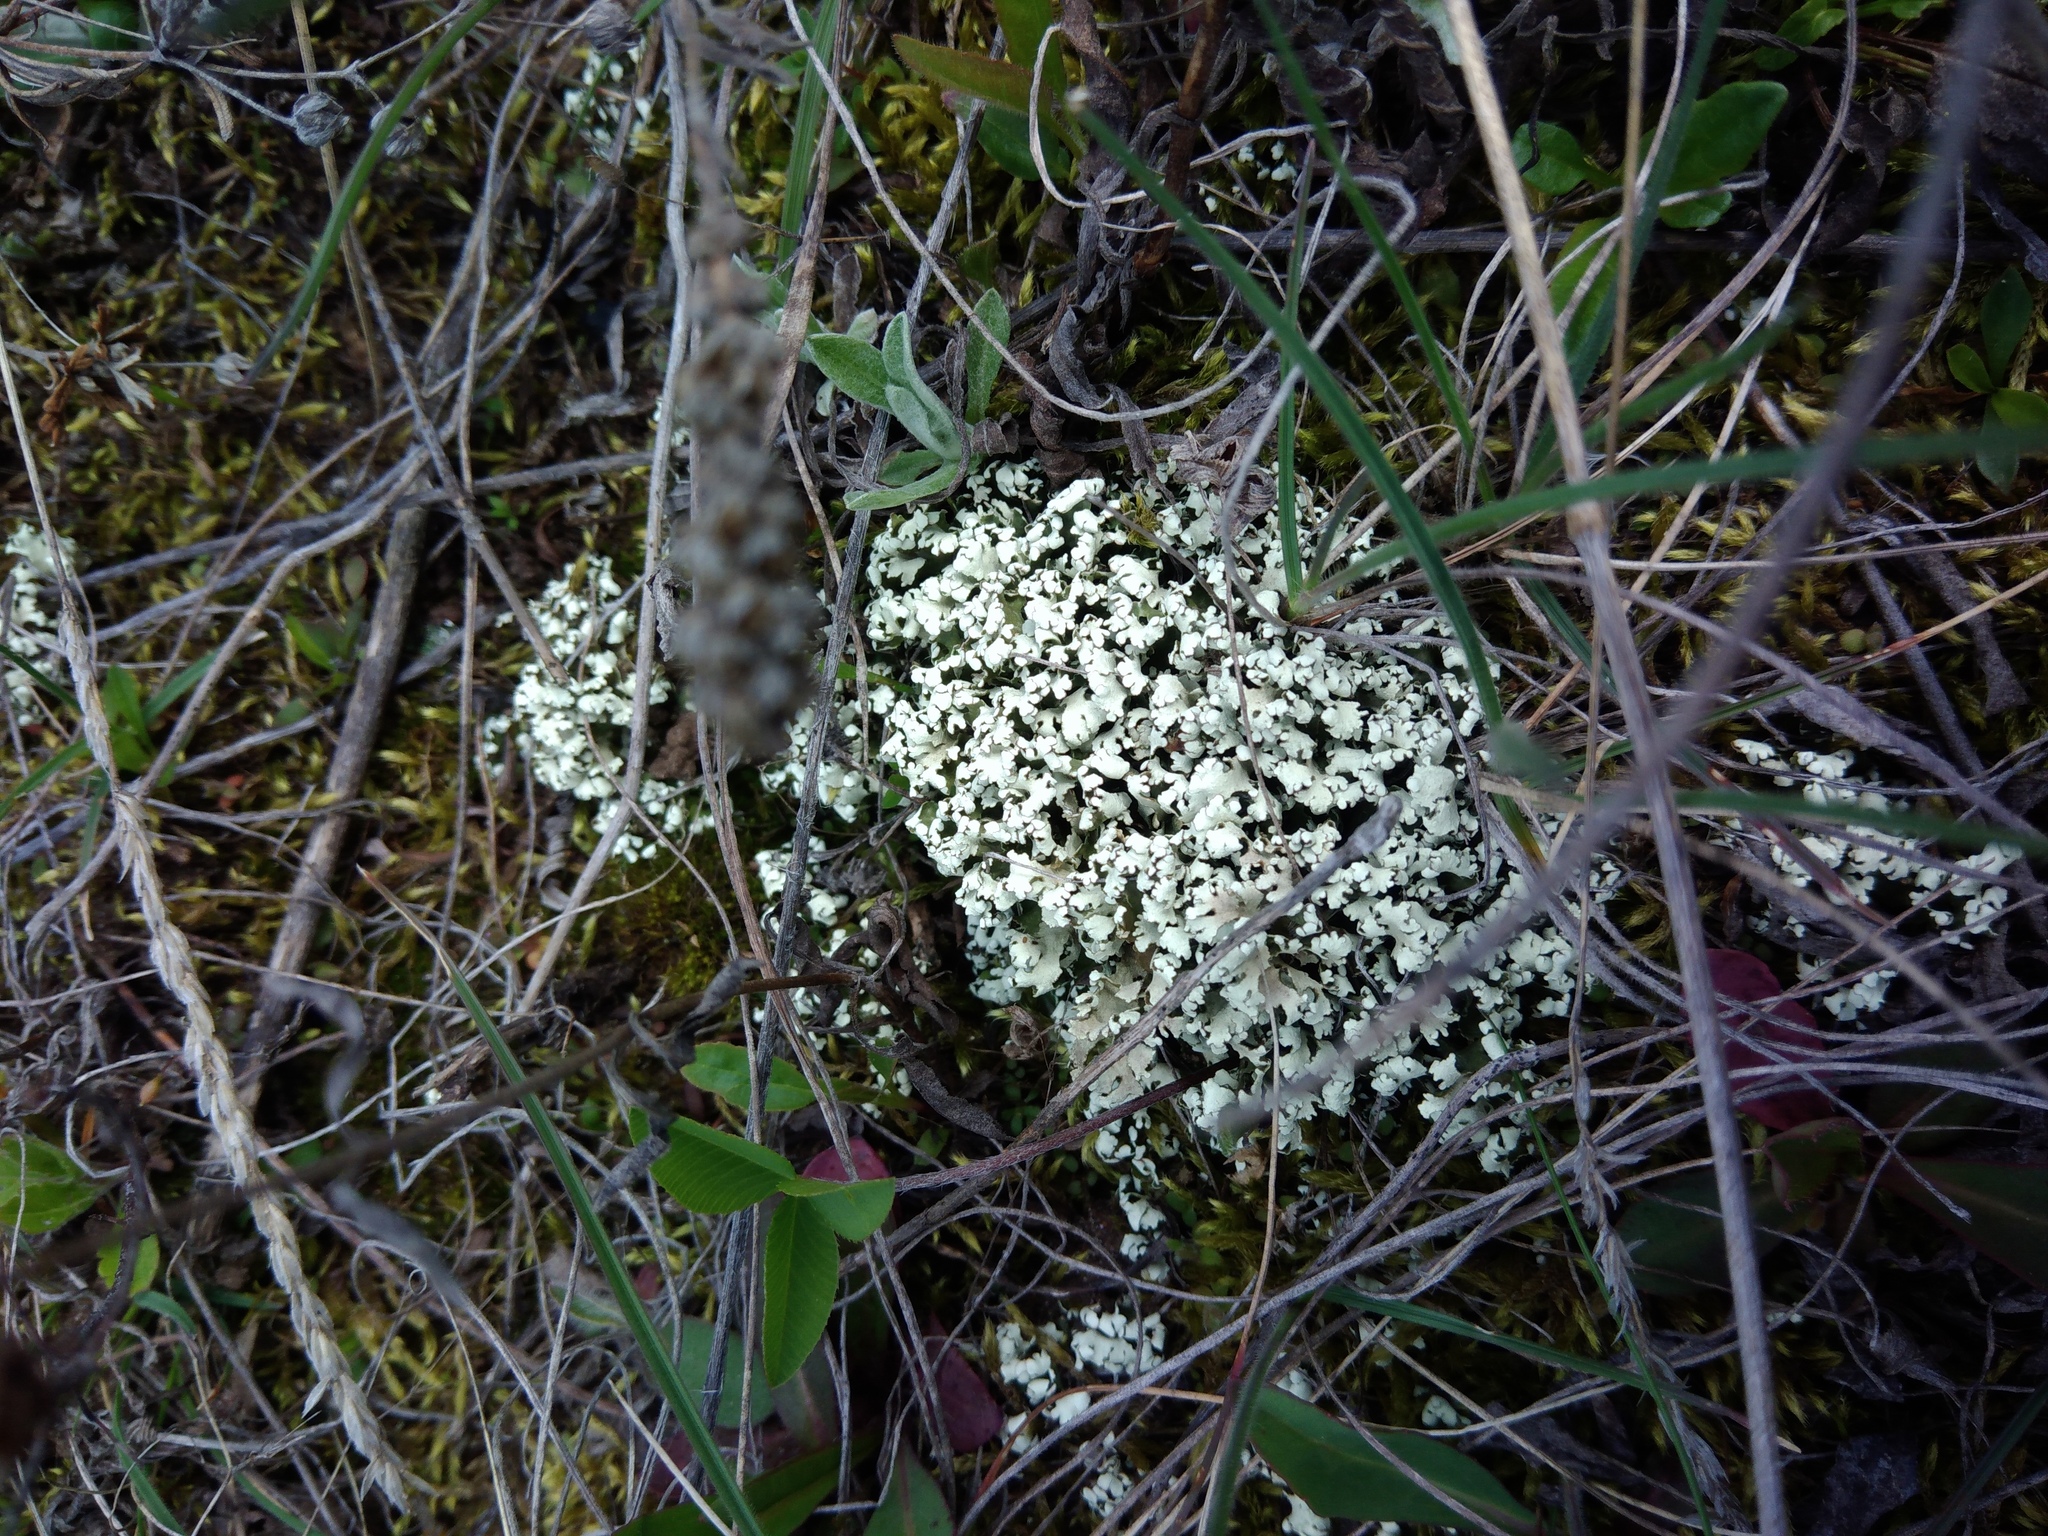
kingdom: Fungi
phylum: Ascomycota
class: Lecanoromycetes
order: Lecanorales
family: Cladoniaceae
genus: Cladonia
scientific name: Cladonia foliacea
